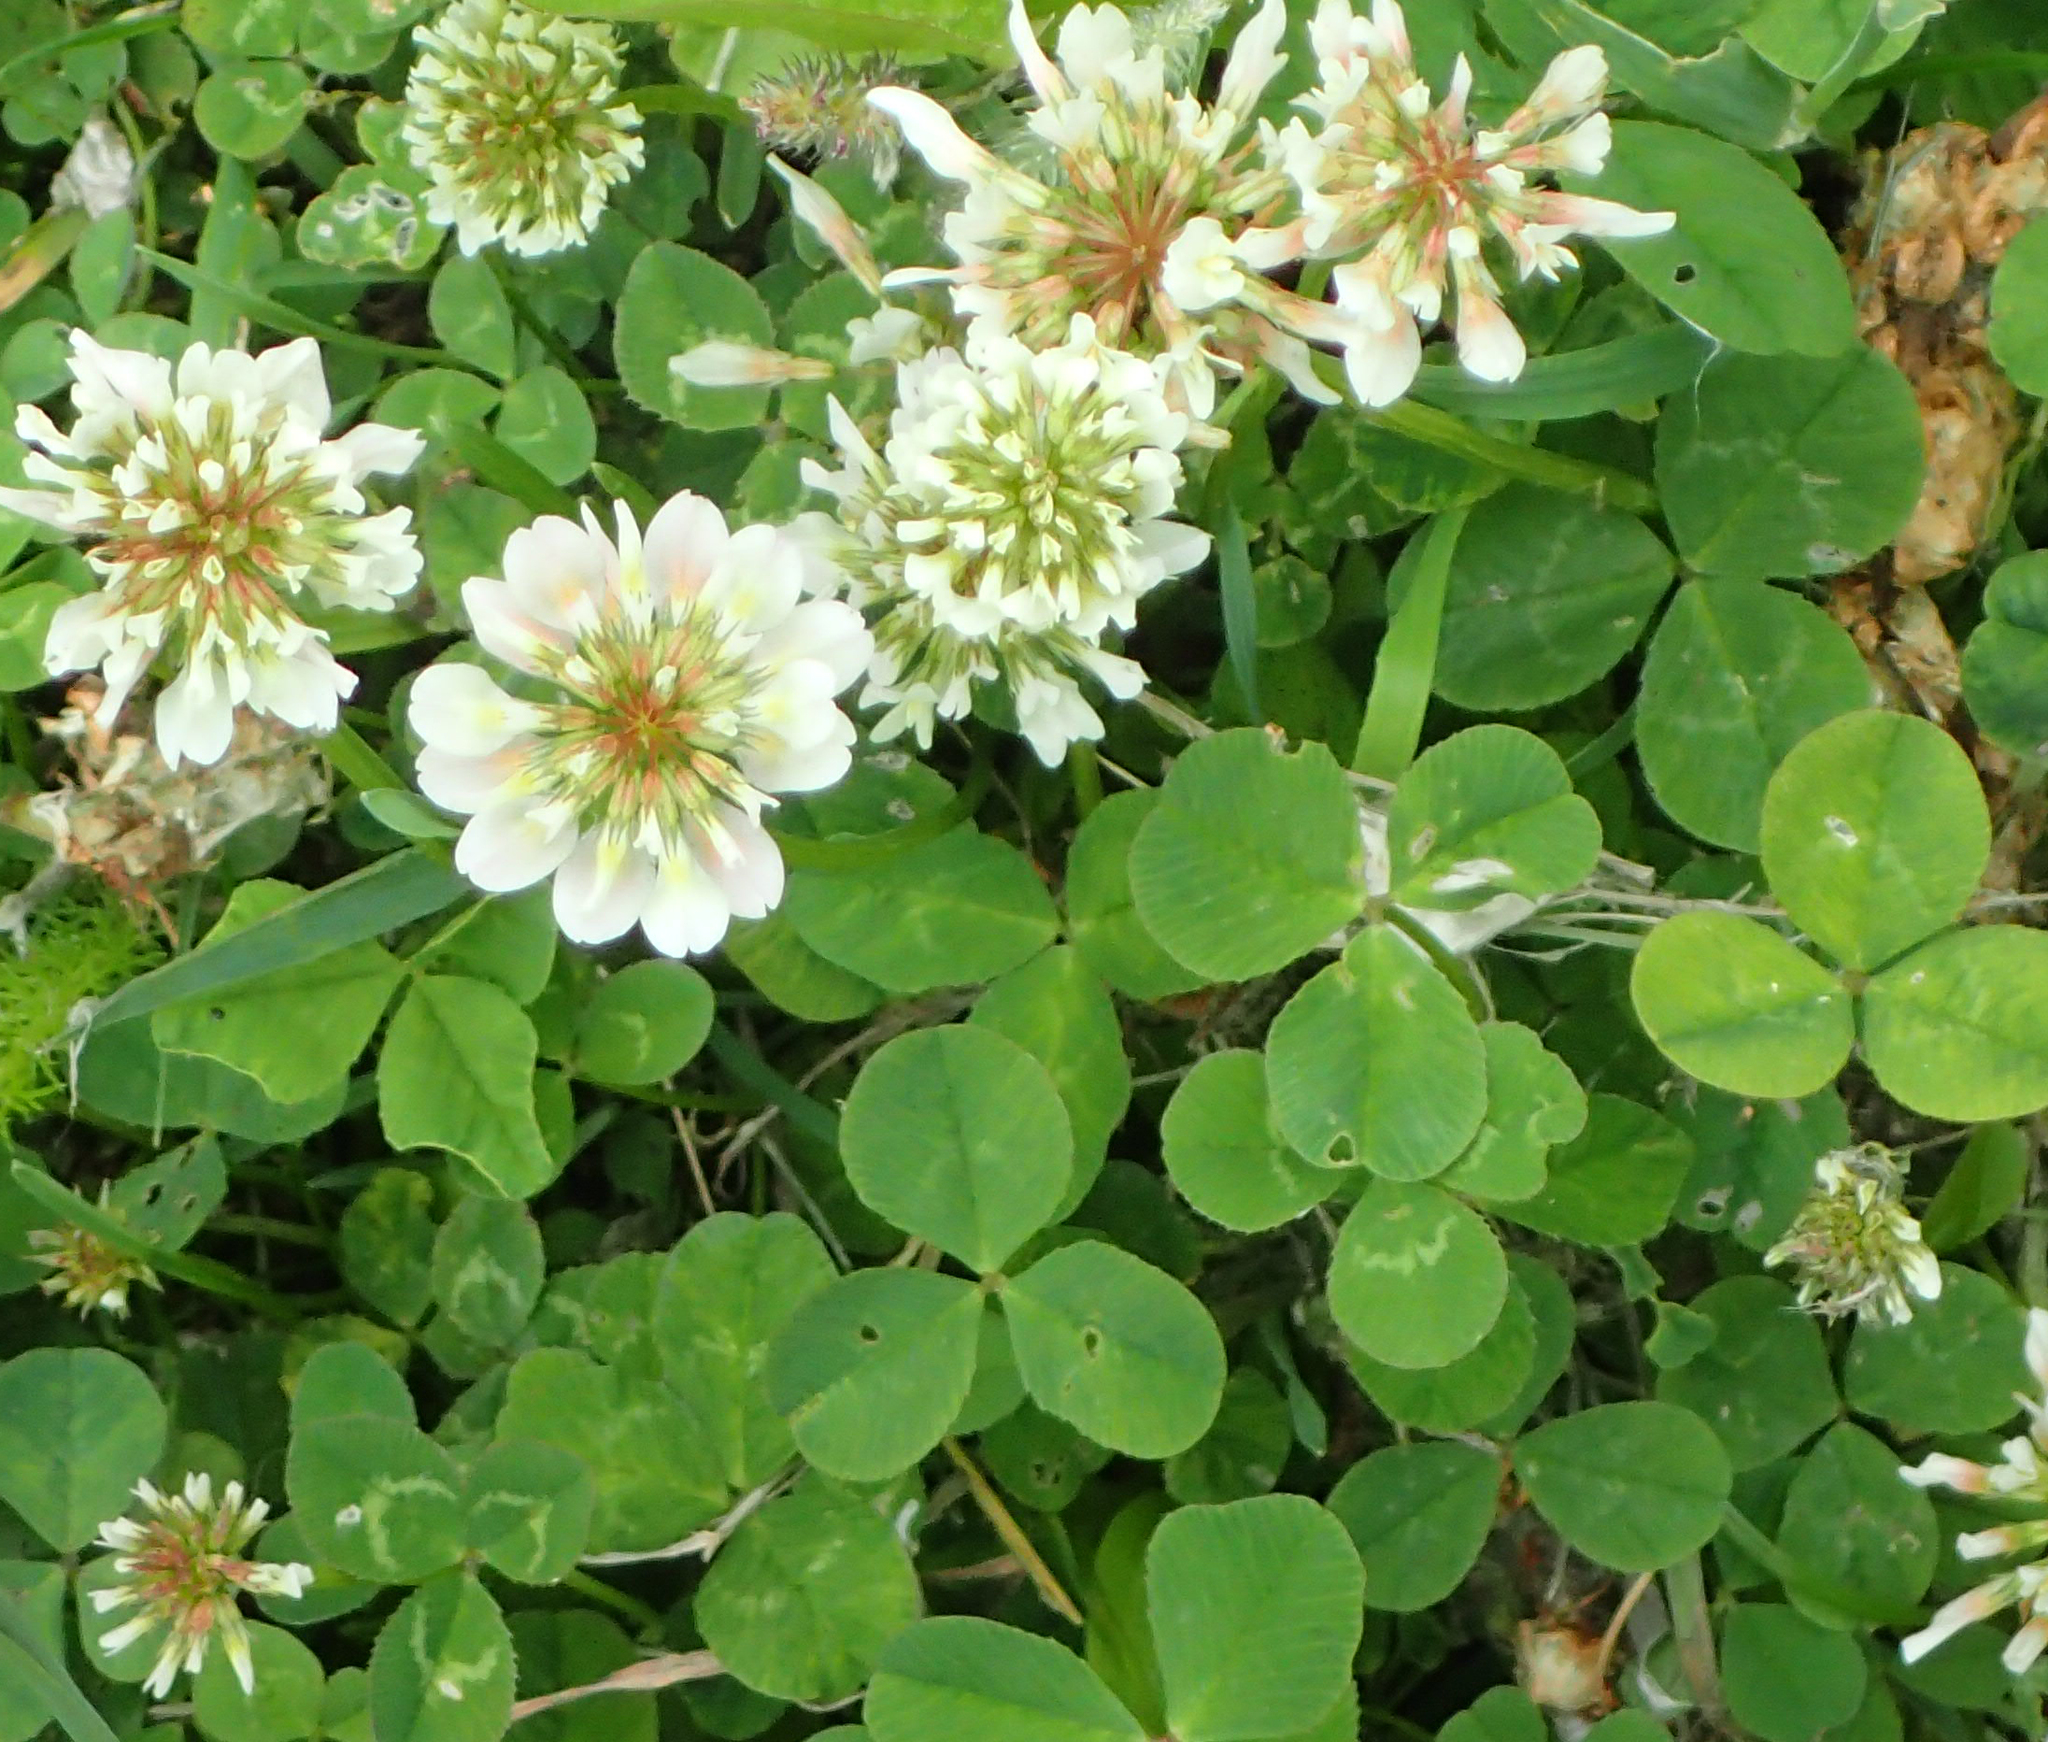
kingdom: Plantae
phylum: Tracheophyta
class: Magnoliopsida
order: Fabales
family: Fabaceae
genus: Trifolium
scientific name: Trifolium repens
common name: White clover
